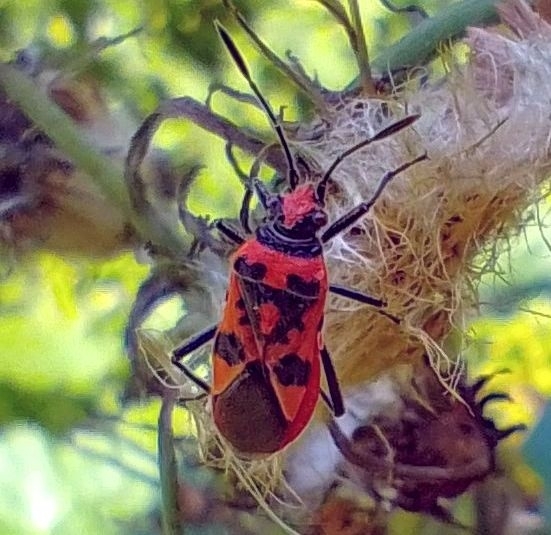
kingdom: Animalia
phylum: Arthropoda
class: Insecta
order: Hemiptera
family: Rhopalidae
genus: Corizus
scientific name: Corizus hyoscyami
